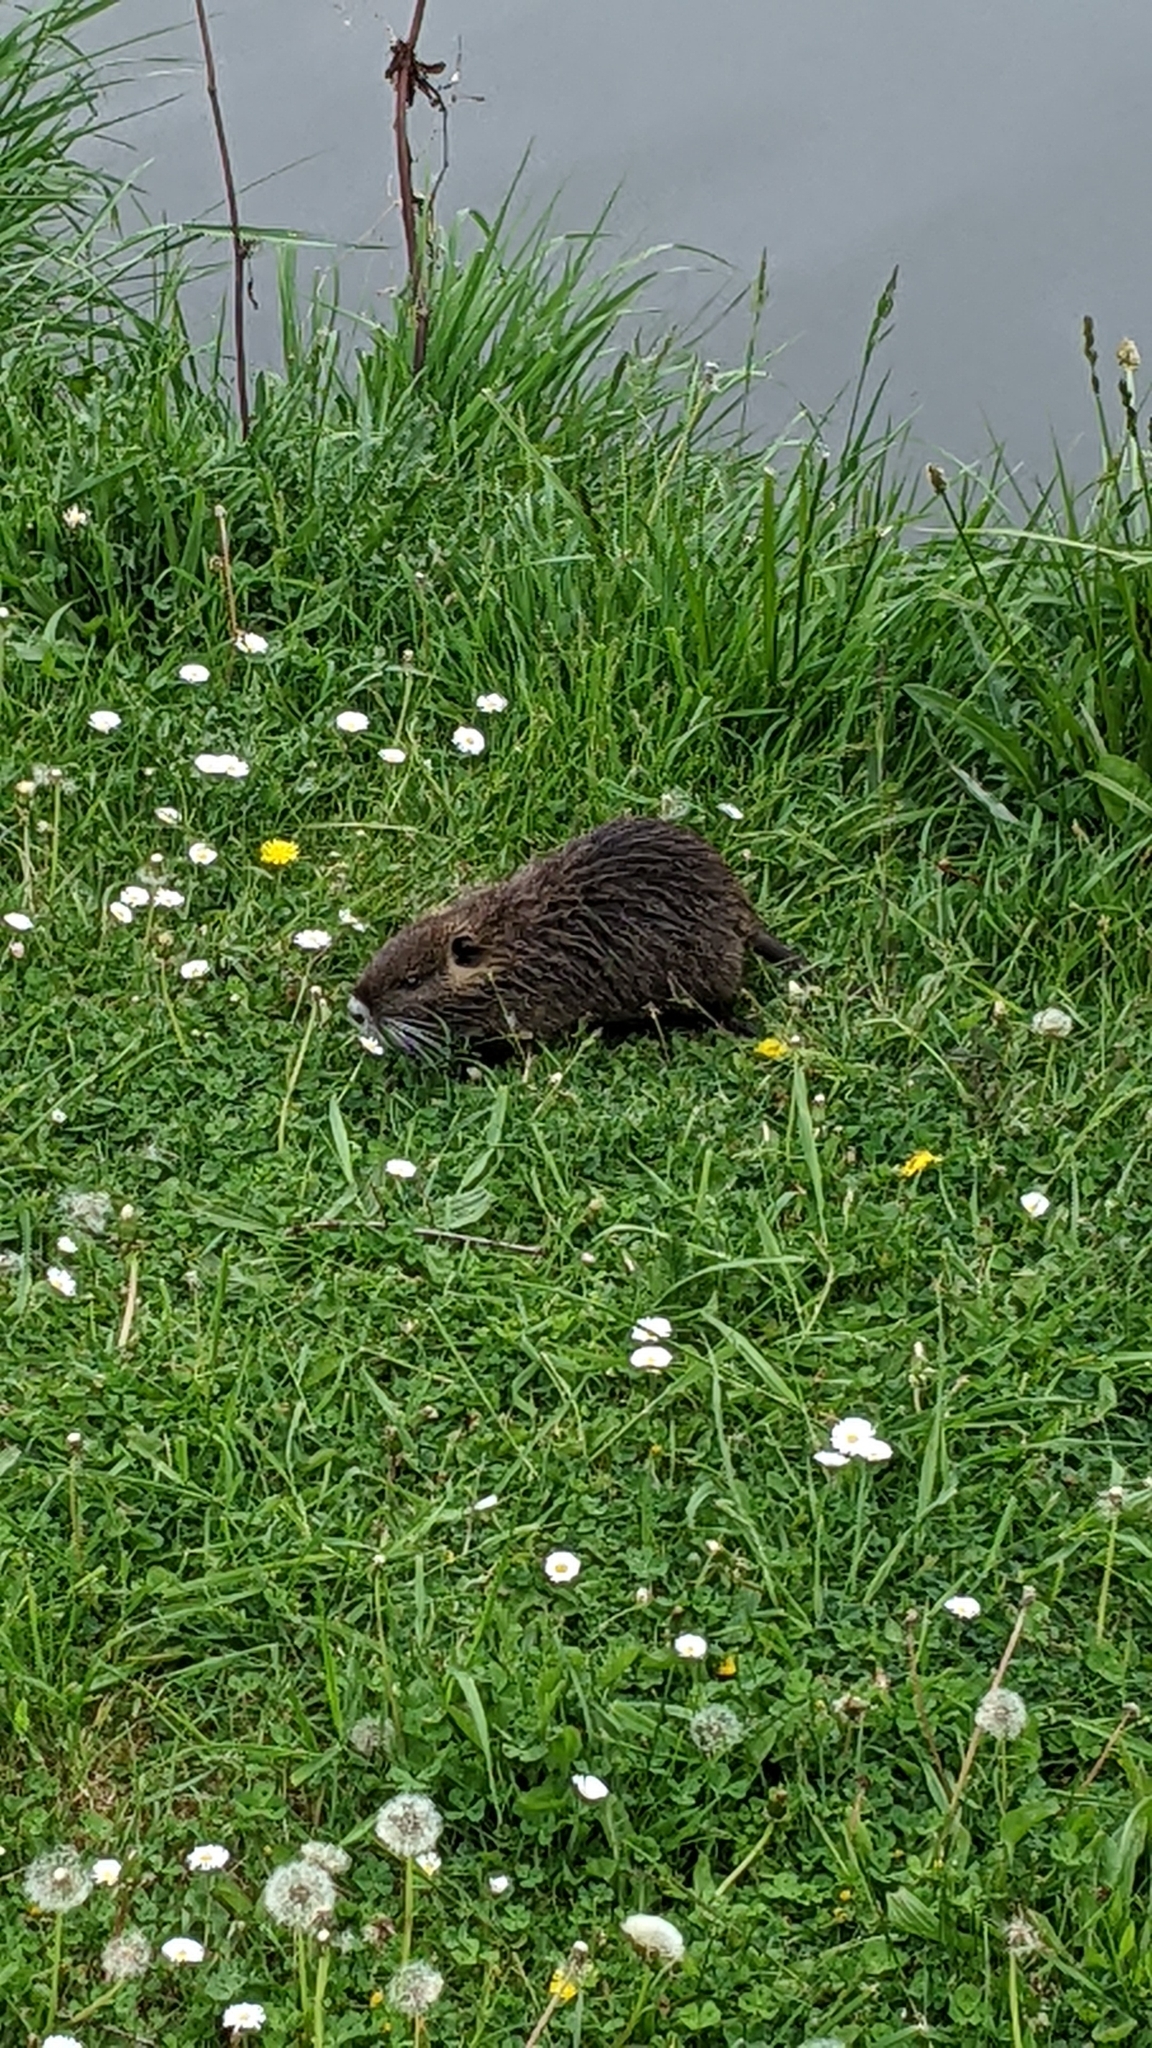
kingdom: Animalia
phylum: Chordata
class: Mammalia
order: Rodentia
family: Myocastoridae
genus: Myocastor
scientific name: Myocastor coypus
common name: Coypu
